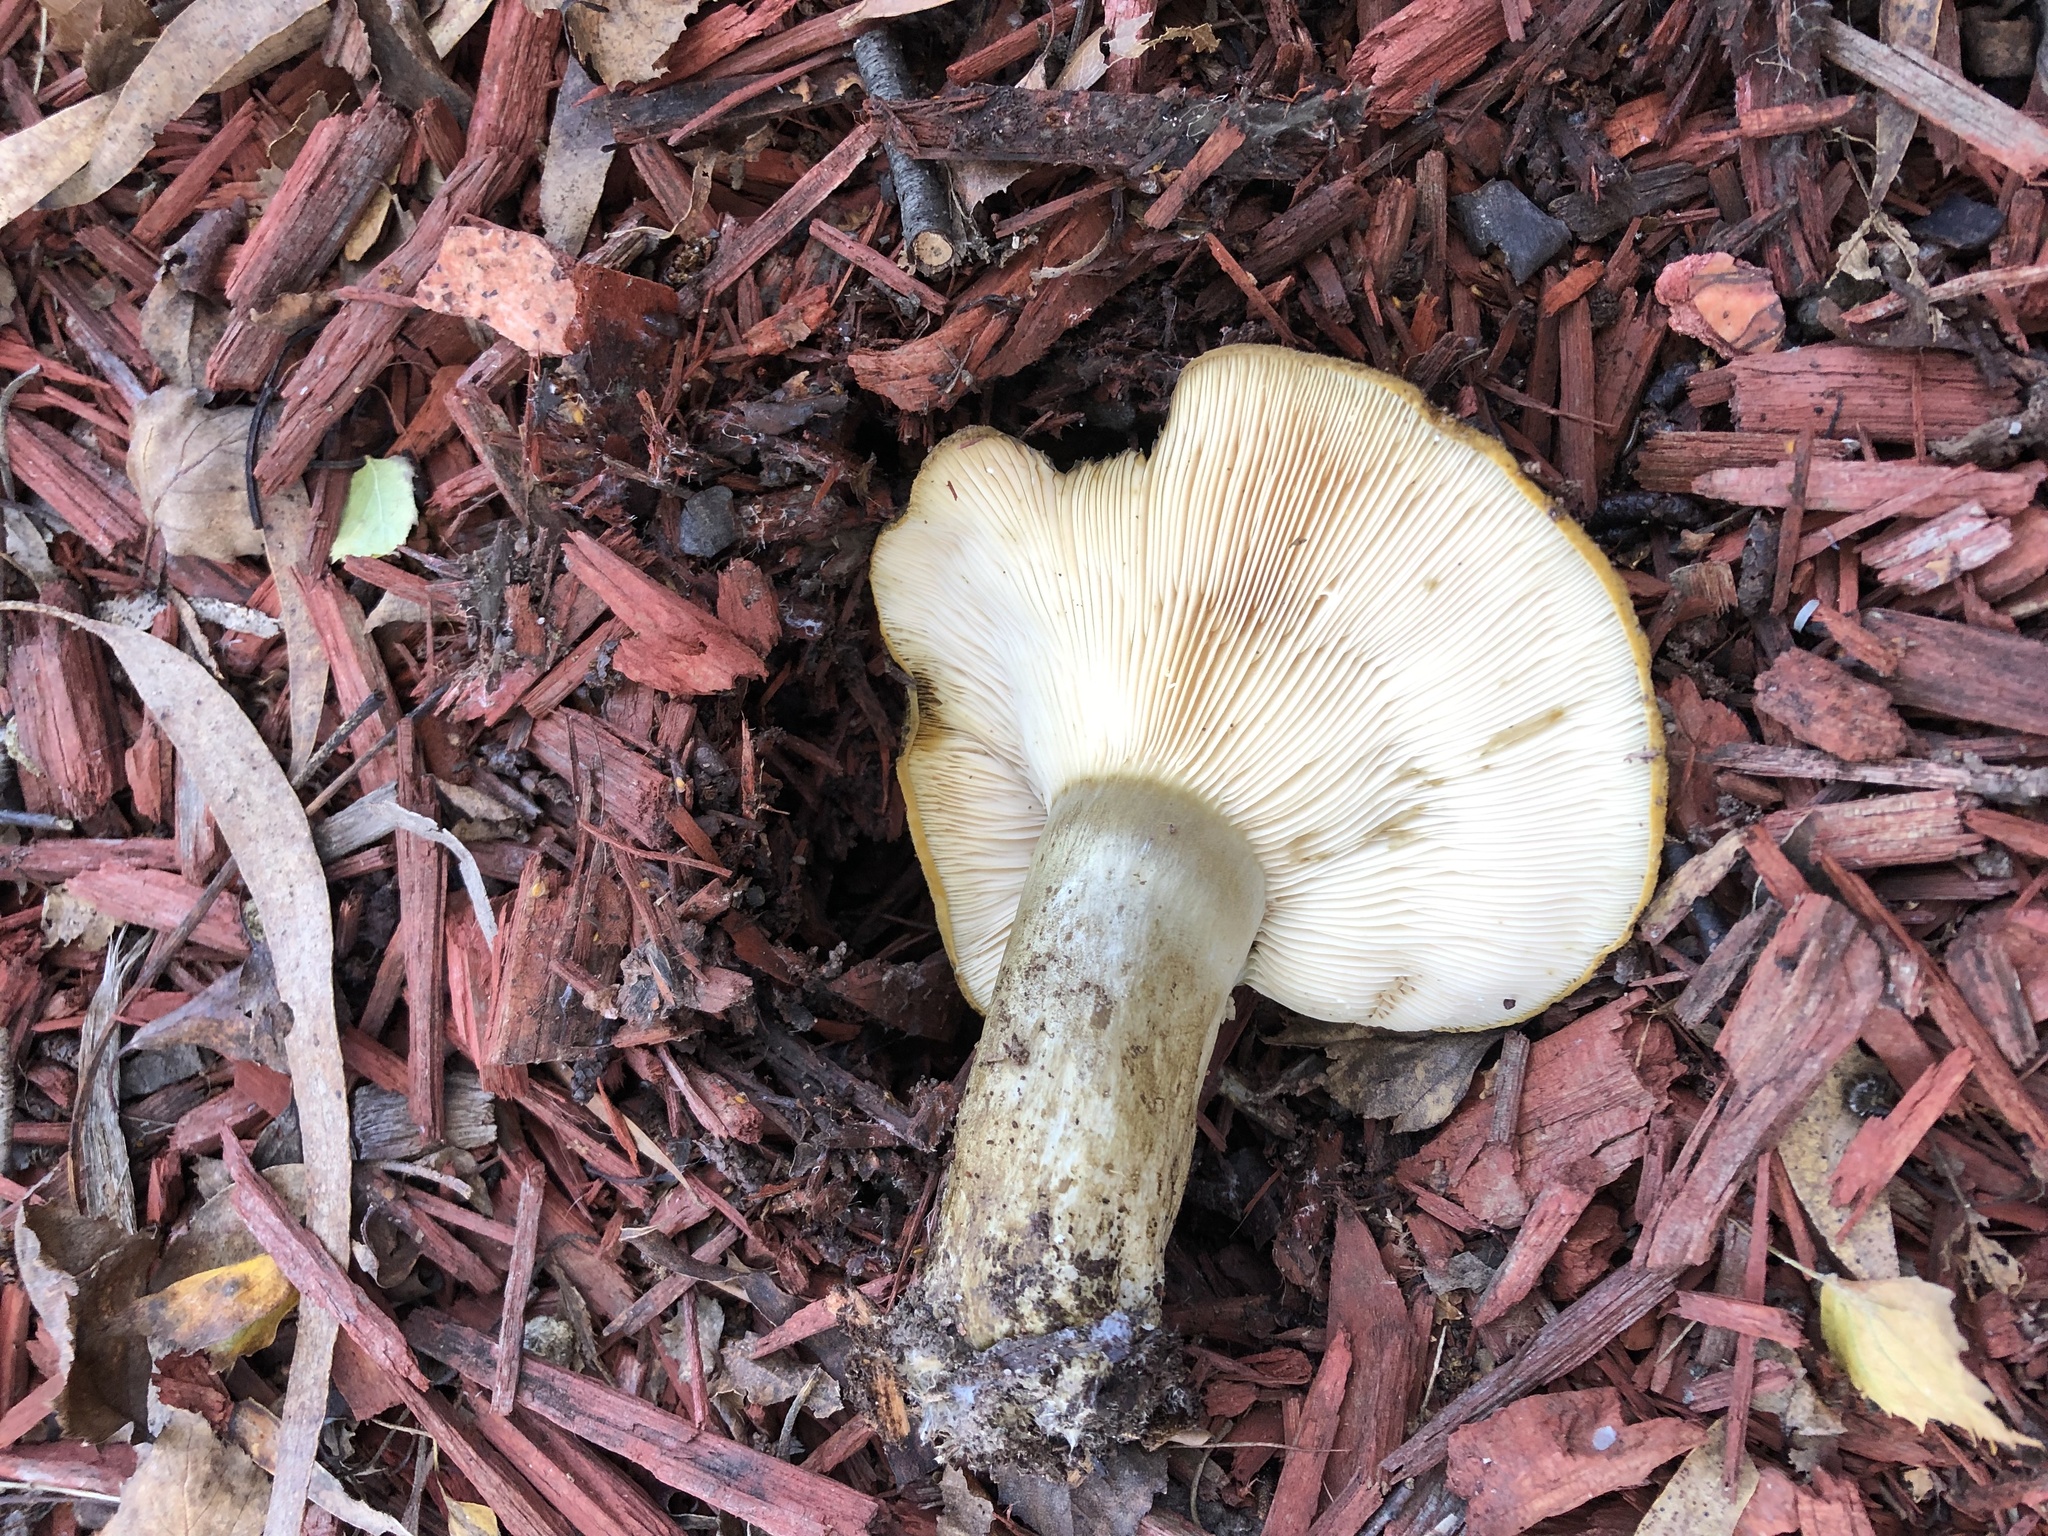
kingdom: Fungi
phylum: Basidiomycota
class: Agaricomycetes
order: Russulales
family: Russulaceae
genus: Lactarius
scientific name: Lactarius turpis
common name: Ugly milk-cap
